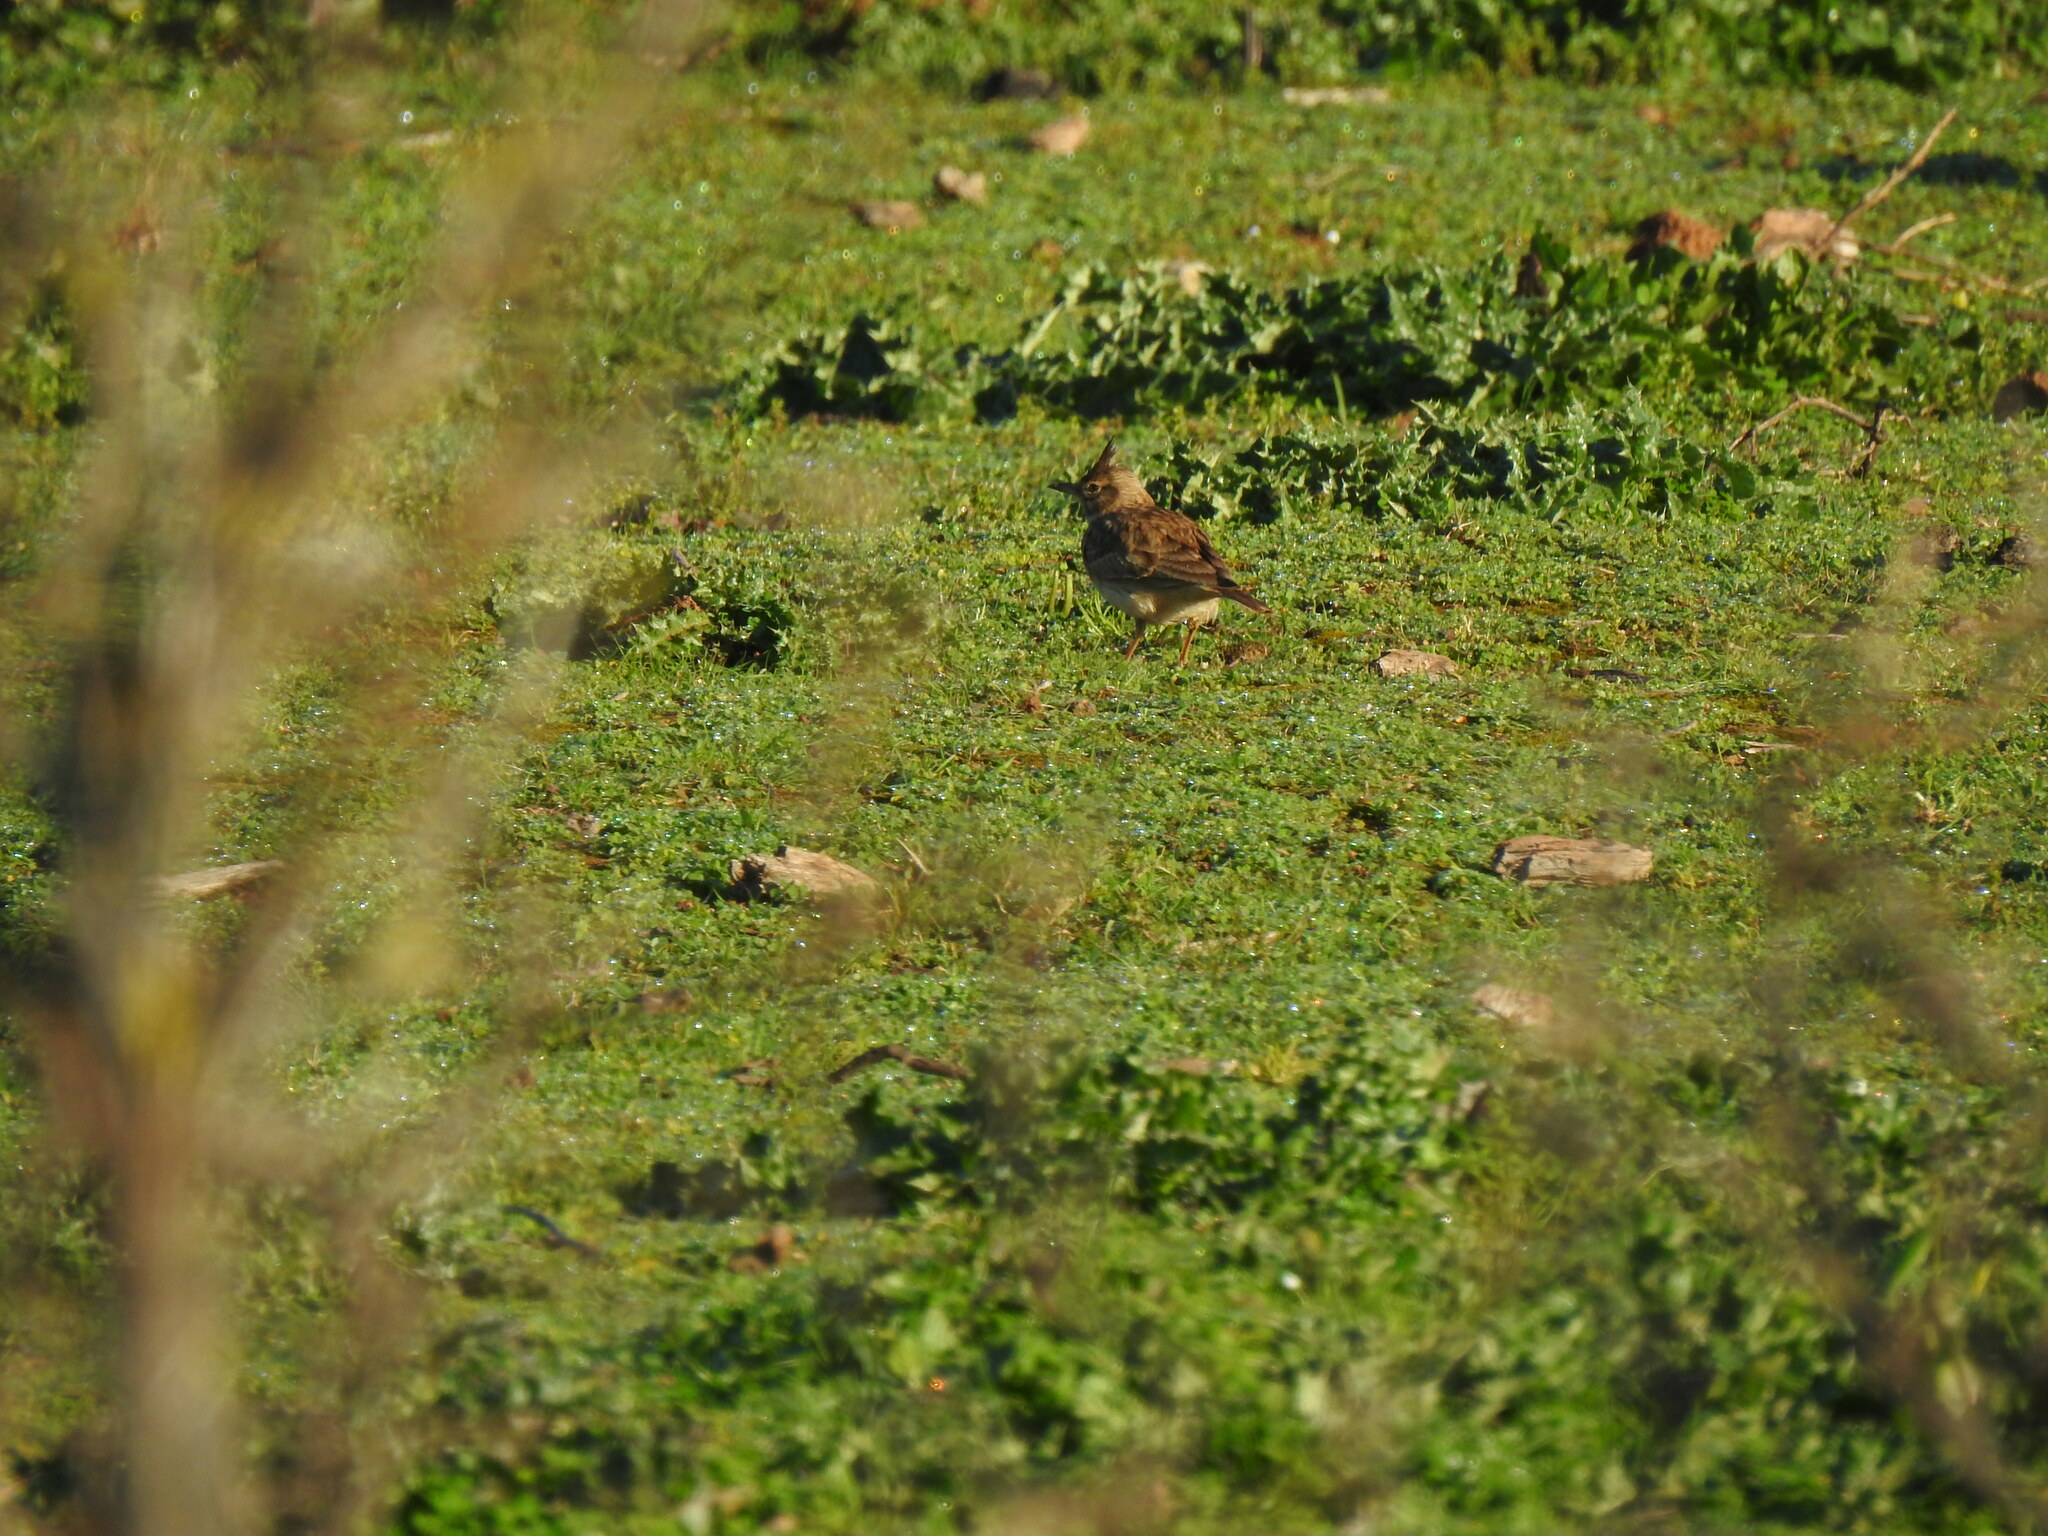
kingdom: Animalia
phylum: Chordata
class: Aves
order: Passeriformes
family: Alaudidae
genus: Galerida
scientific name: Galerida cristata
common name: Crested lark
